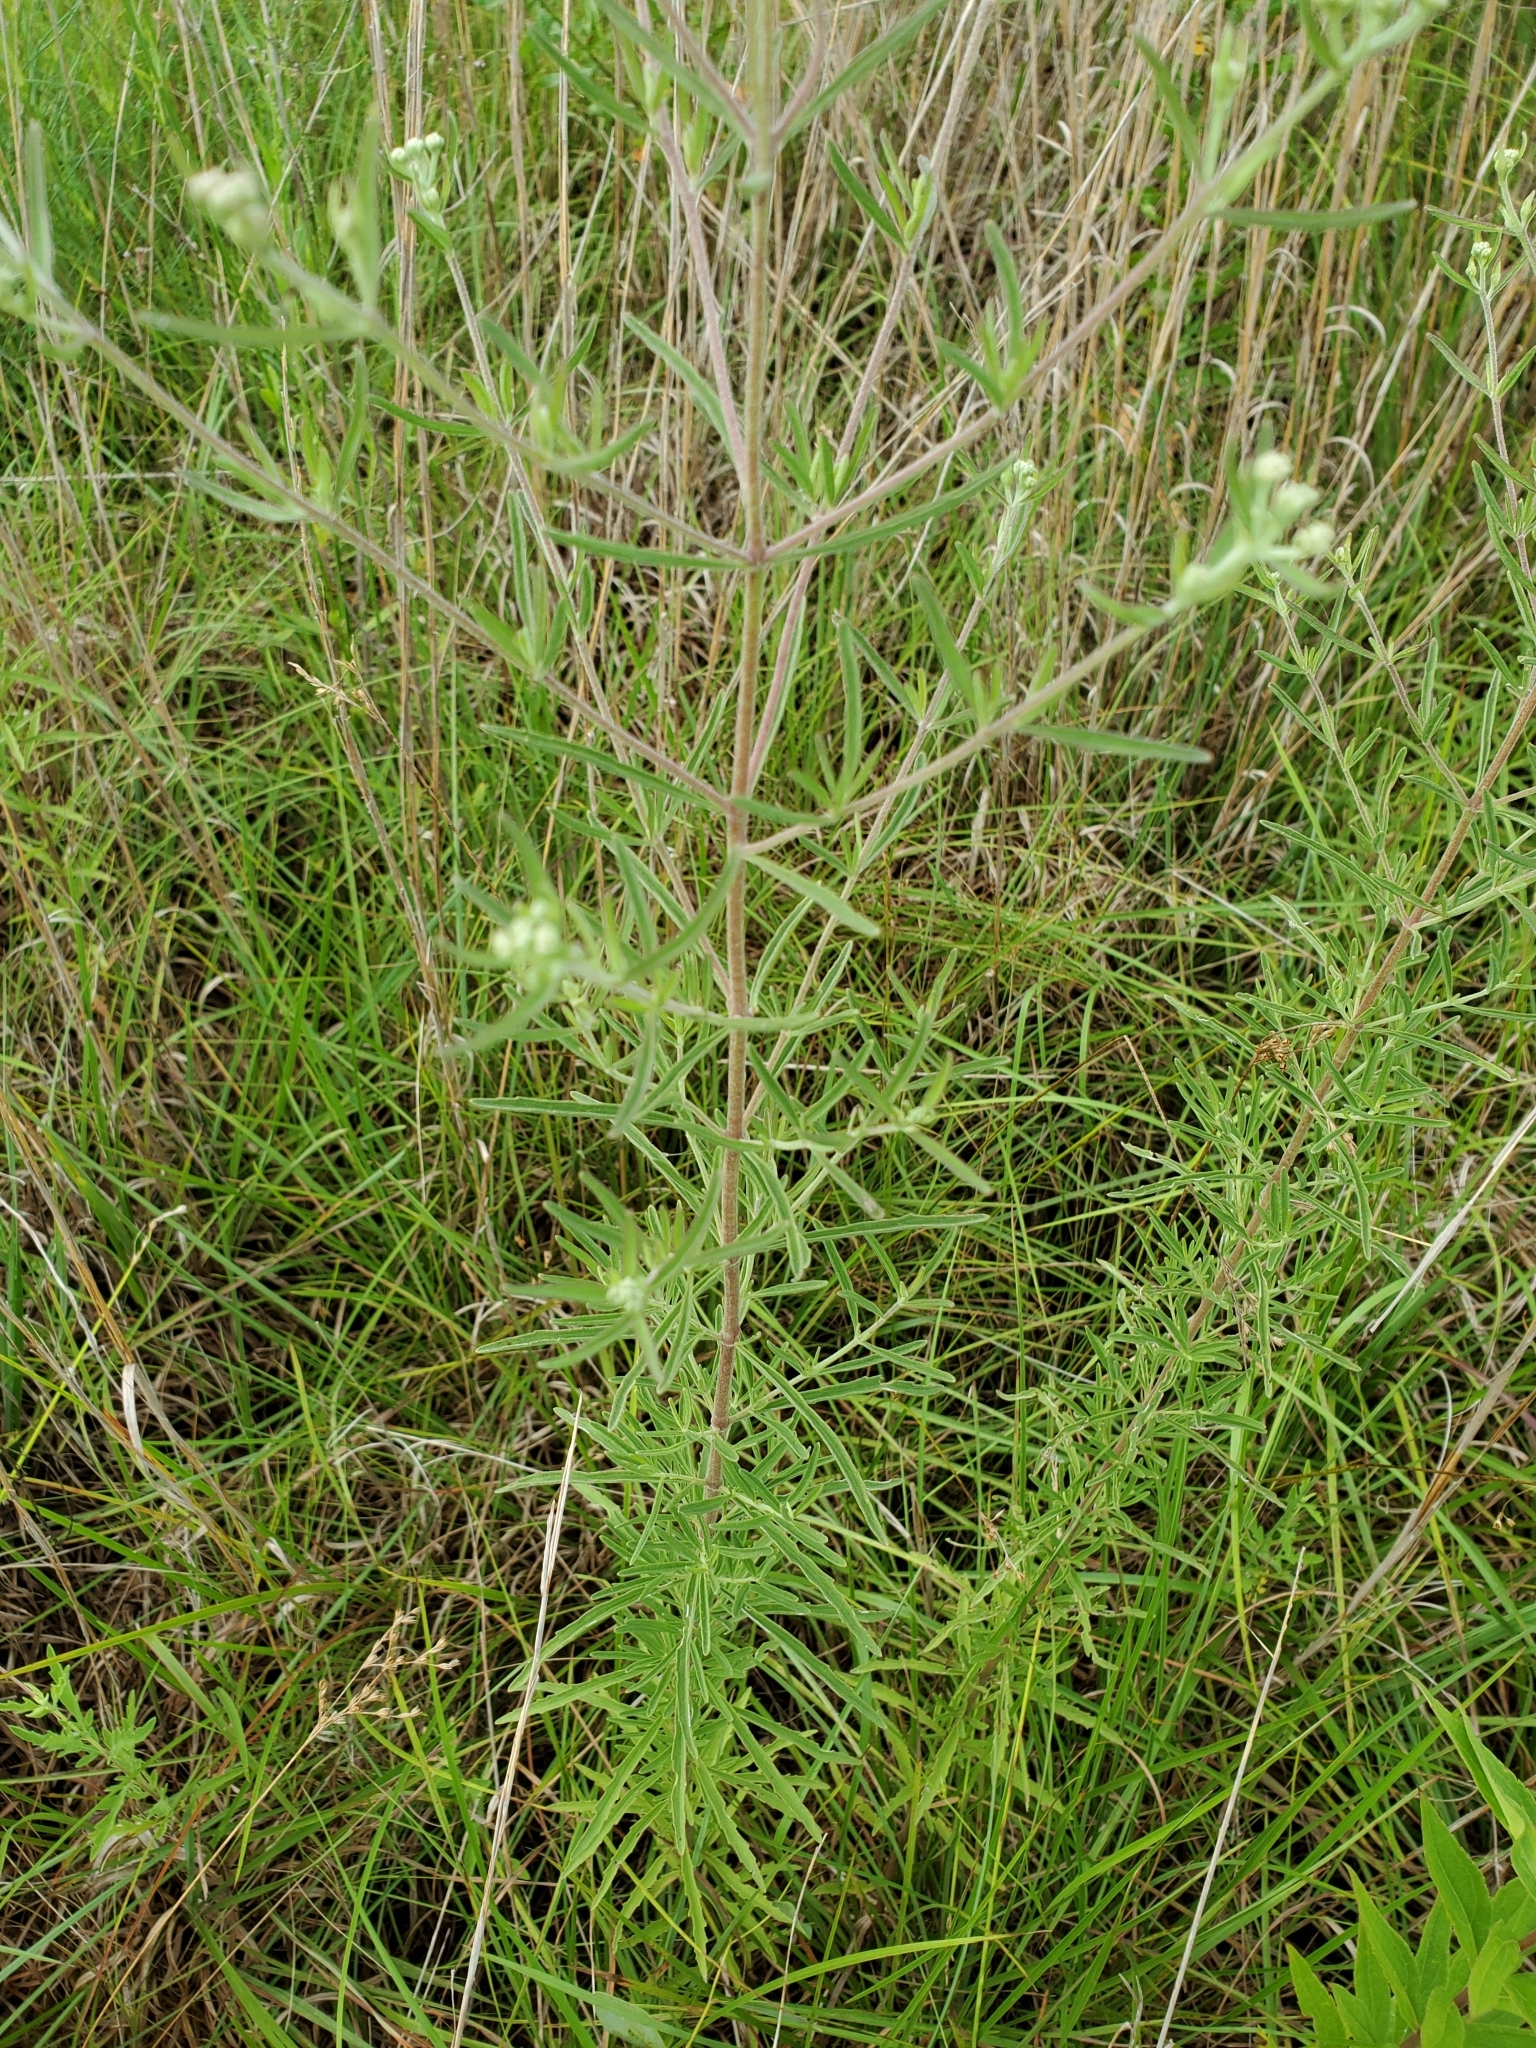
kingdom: Plantae
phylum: Tracheophyta
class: Magnoliopsida
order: Asterales
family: Asteraceae
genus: Eupatorium
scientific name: Eupatorium hyssopifolium
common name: Hyssop-leaf thoroughwort
